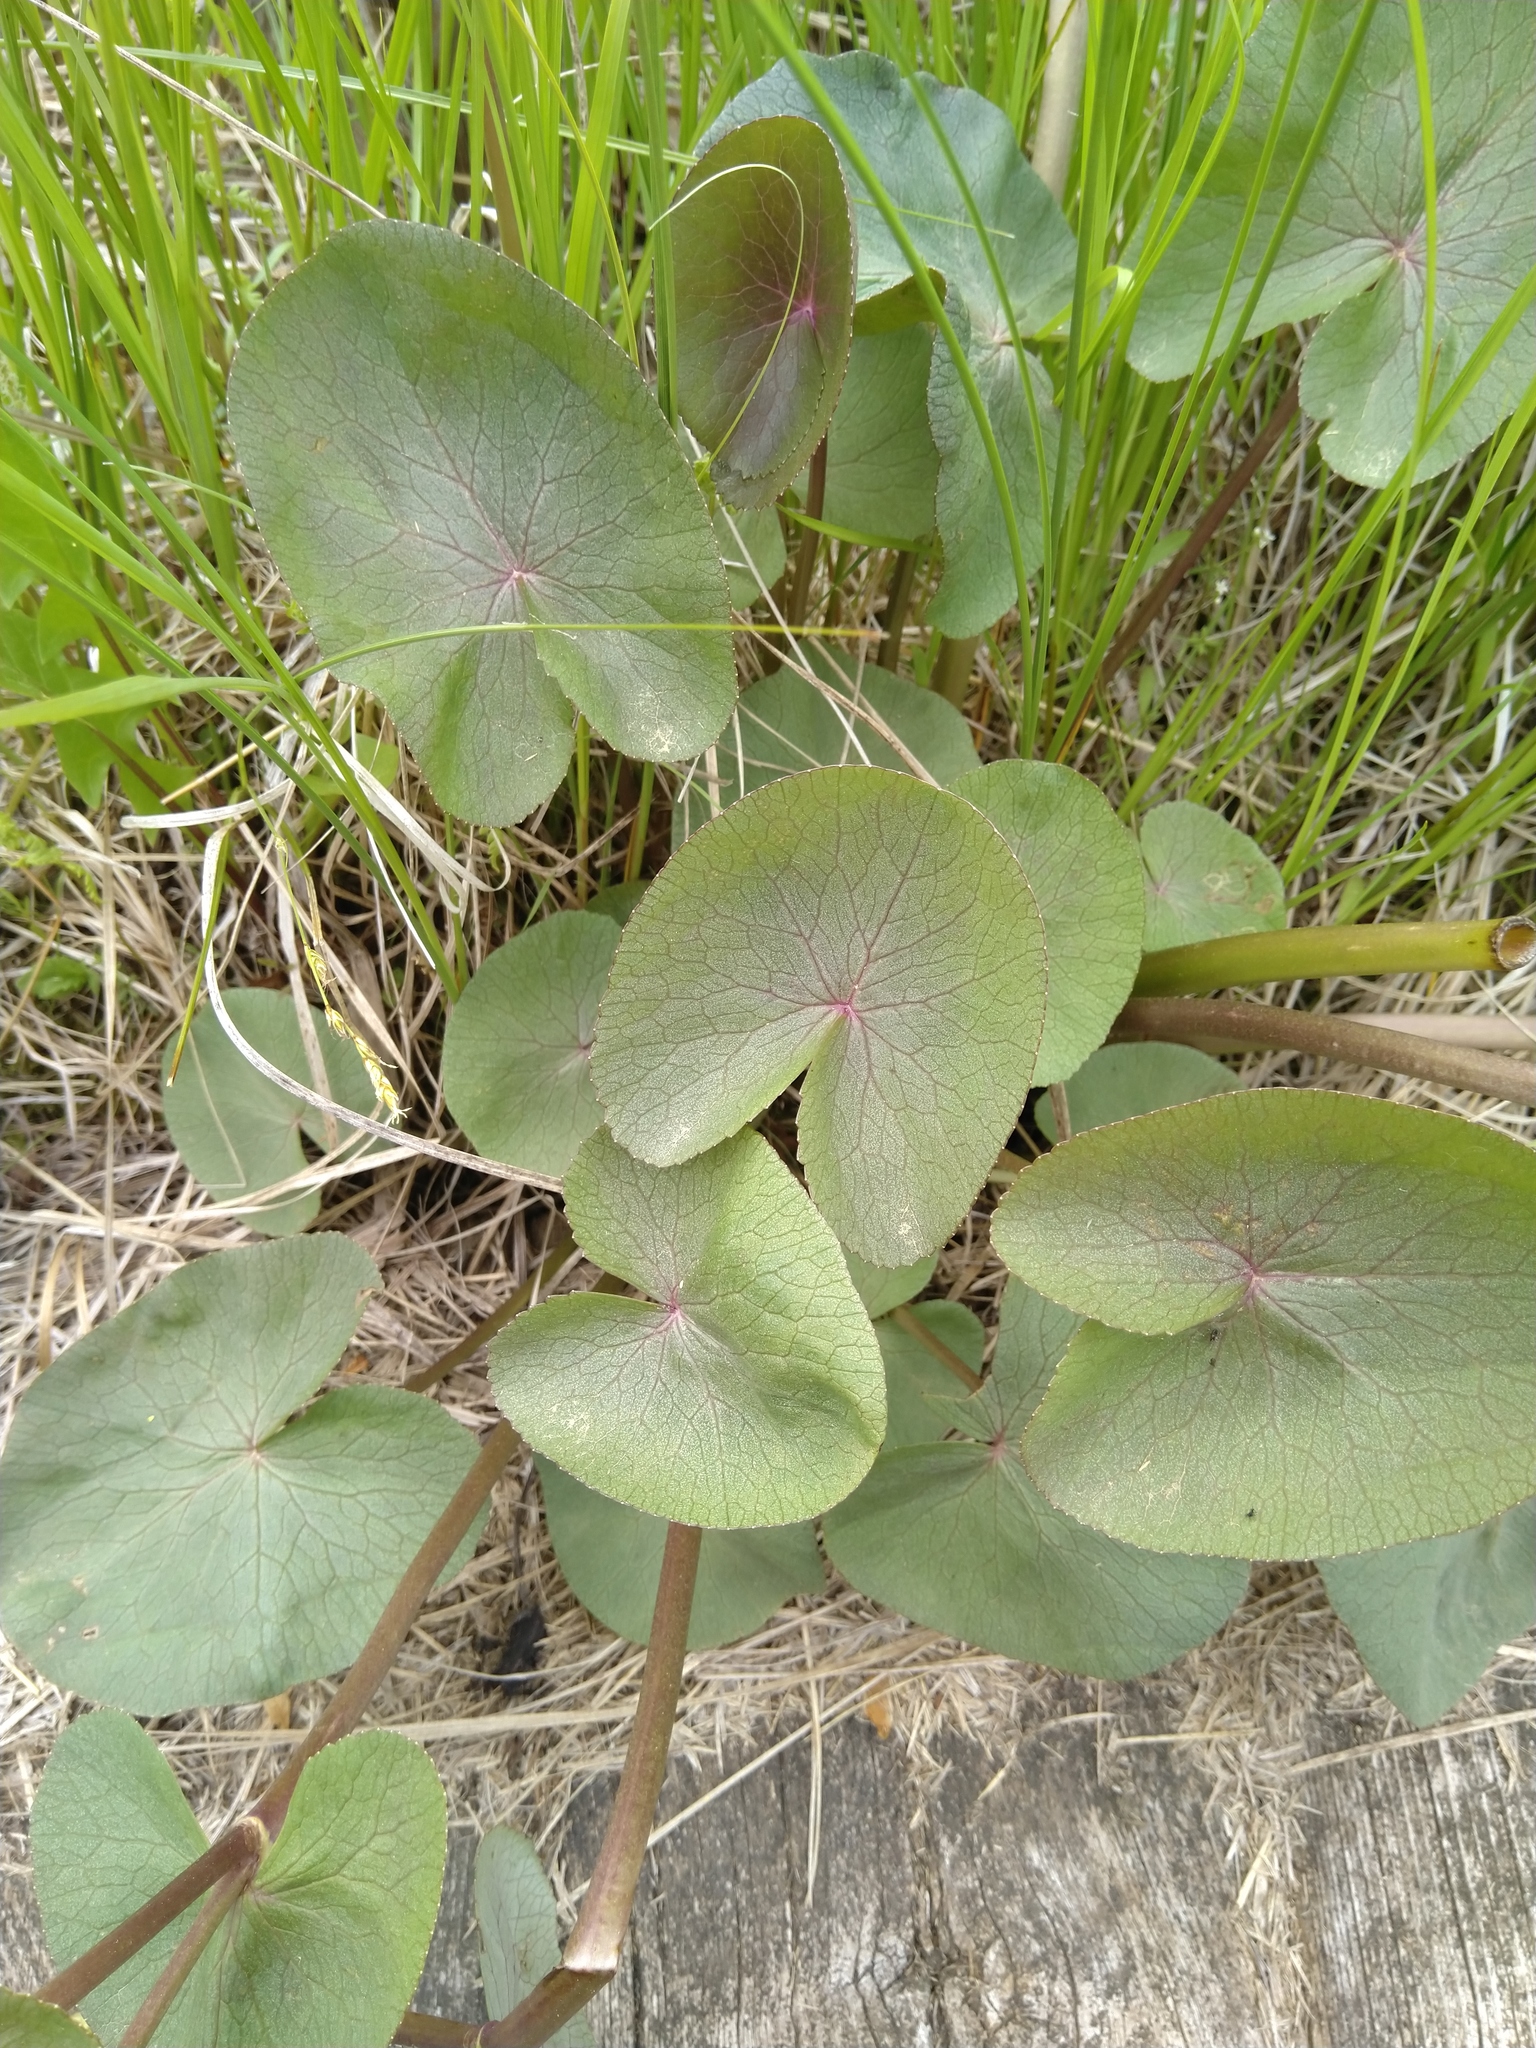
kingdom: Plantae
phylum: Tracheophyta
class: Magnoliopsida
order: Ranunculales
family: Ranunculaceae
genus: Caltha
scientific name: Caltha palustris
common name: Marsh marigold
